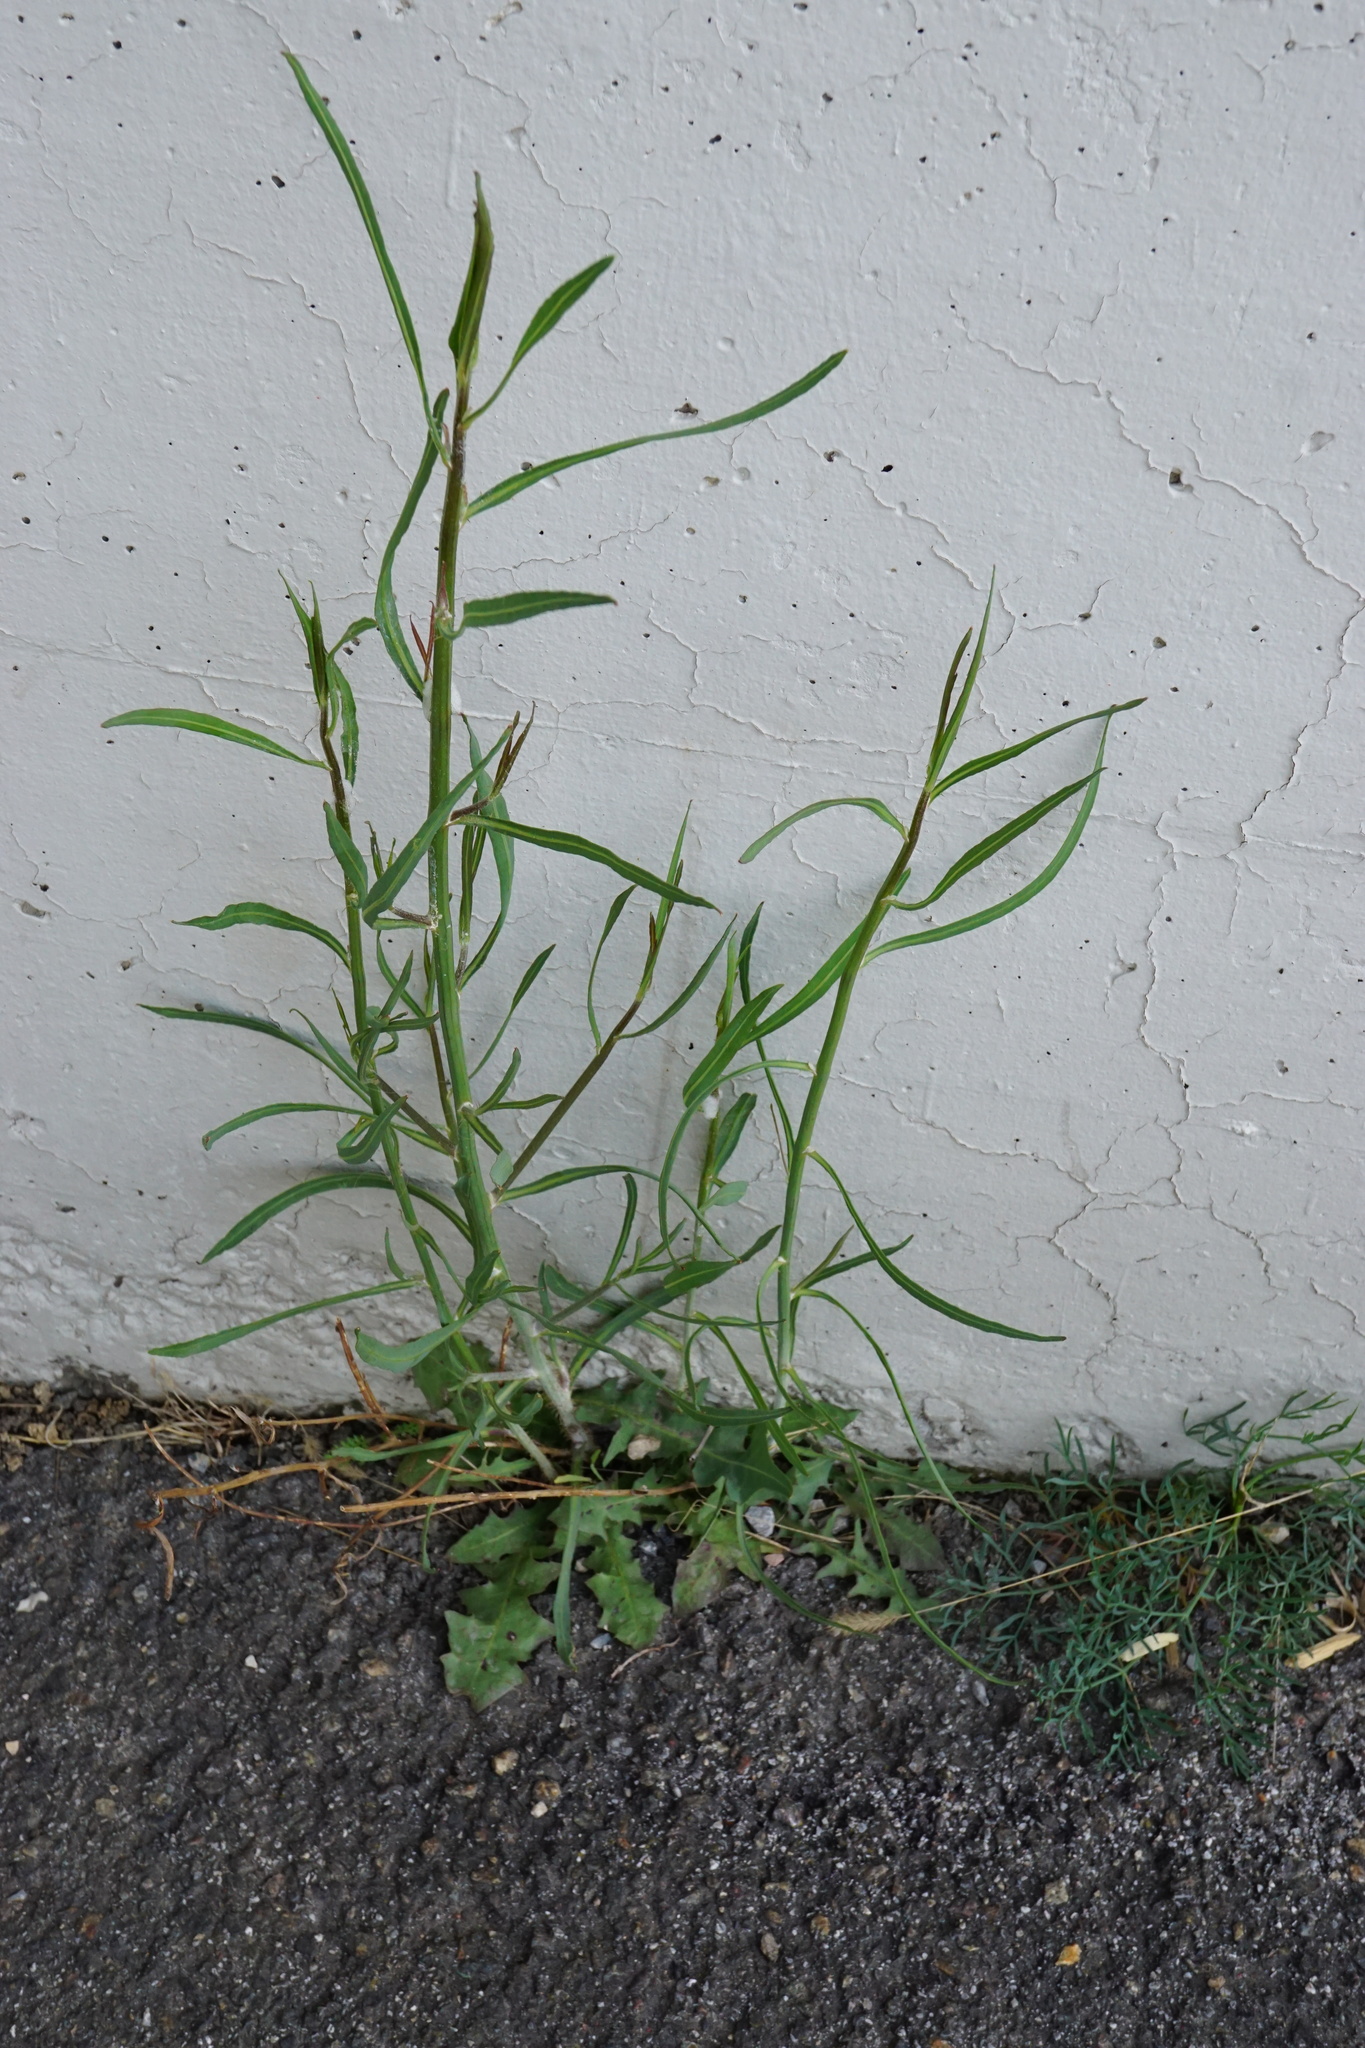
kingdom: Plantae
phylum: Tracheophyta
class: Magnoliopsida
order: Asterales
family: Asteraceae
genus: Chondrilla
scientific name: Chondrilla juncea
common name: Skeleton weed
